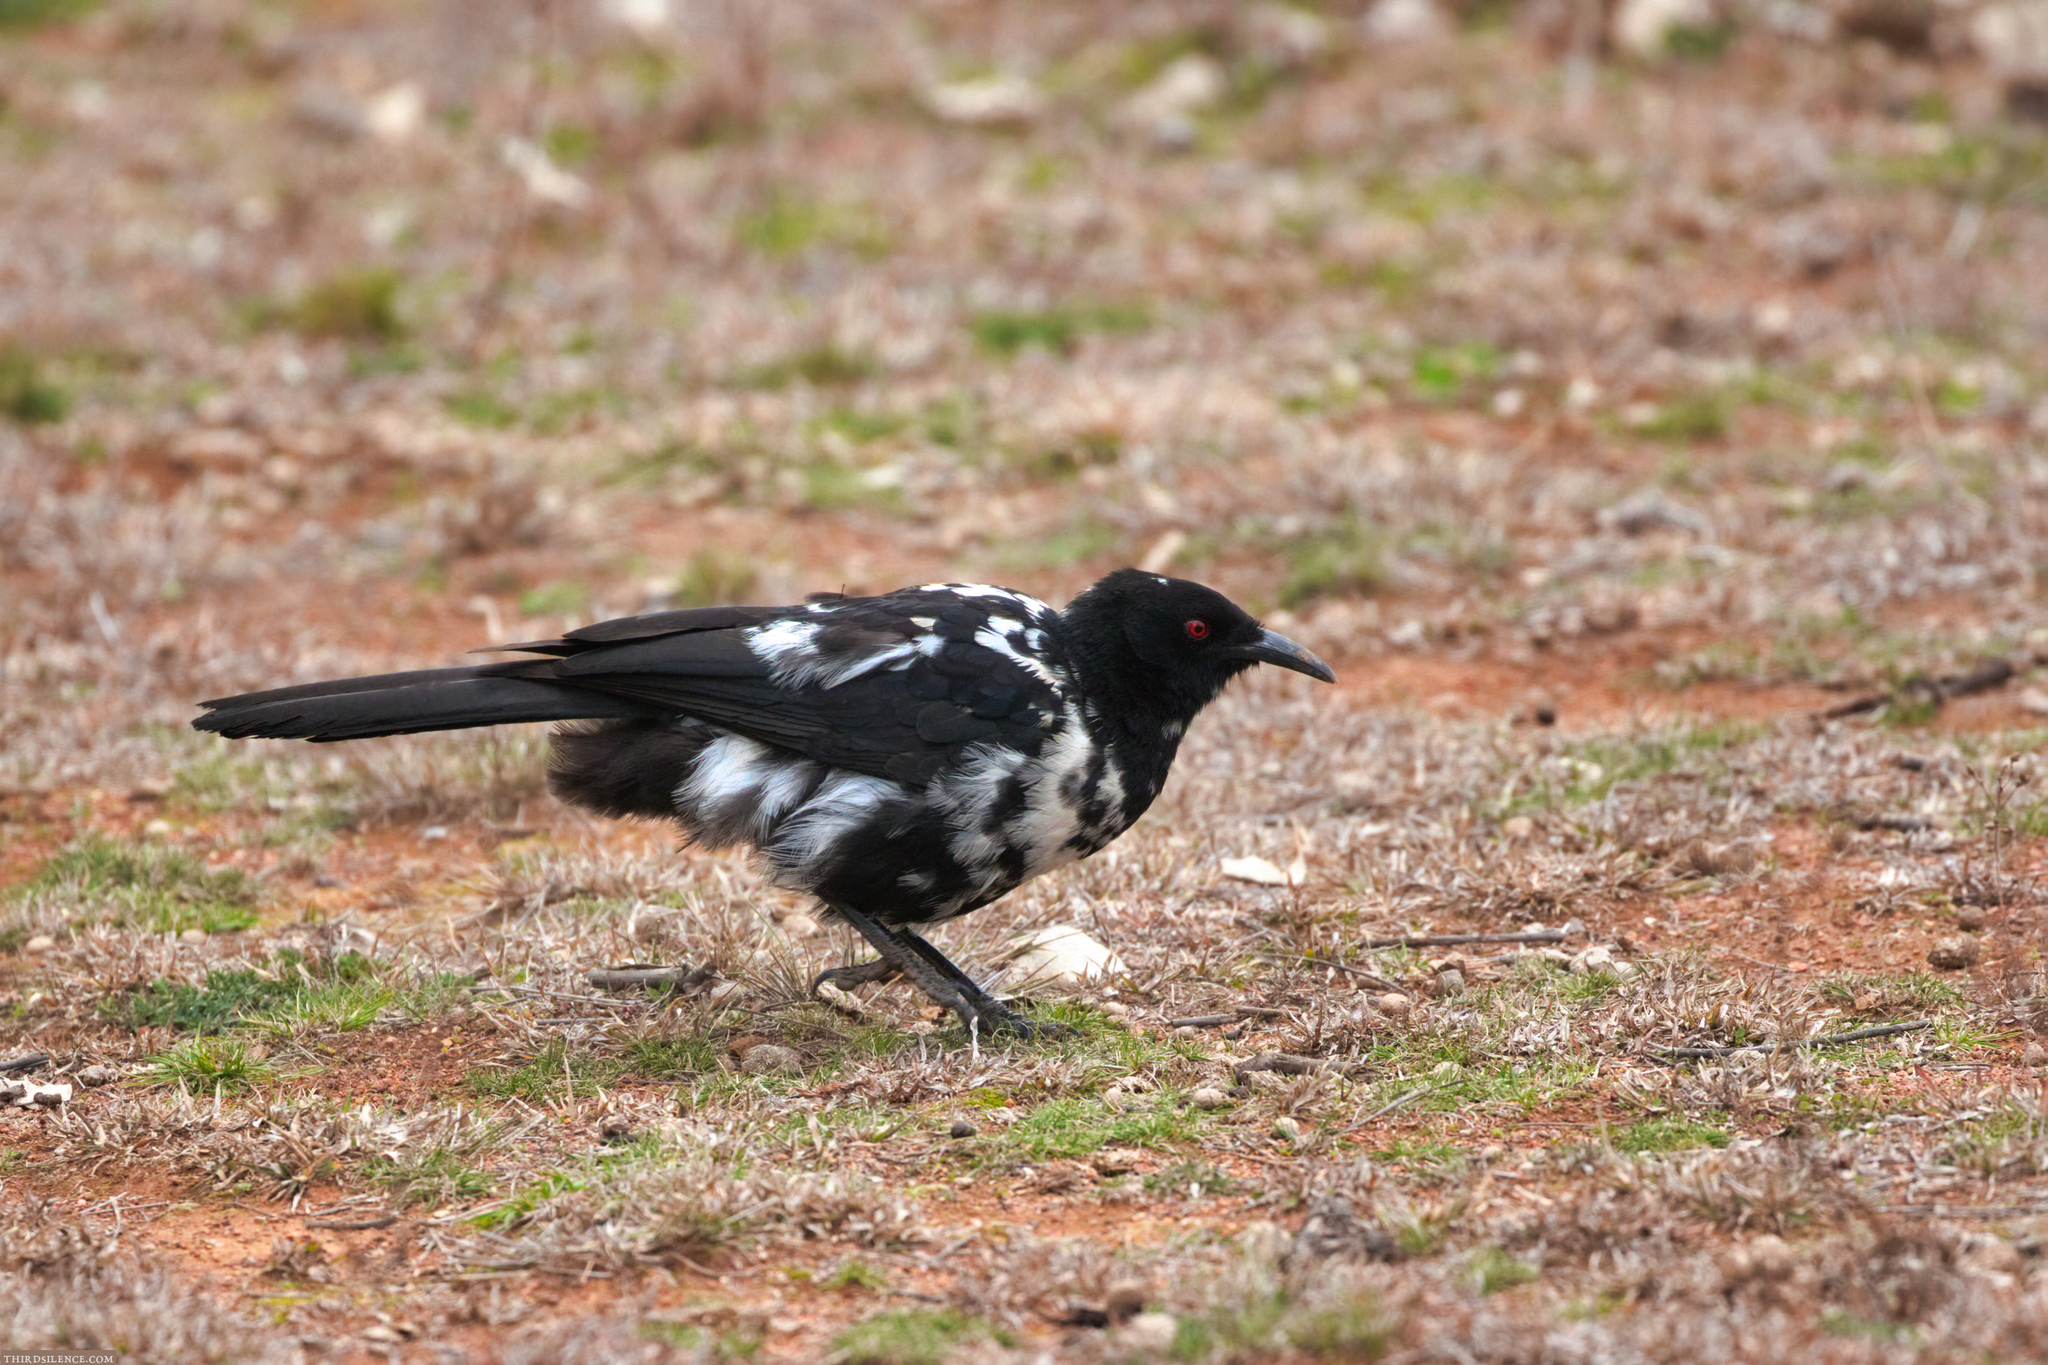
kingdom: Animalia
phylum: Chordata
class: Aves
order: Passeriformes
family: Corcoracidae
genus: Corcorax
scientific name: Corcorax melanoramphos
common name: White-winged chough
